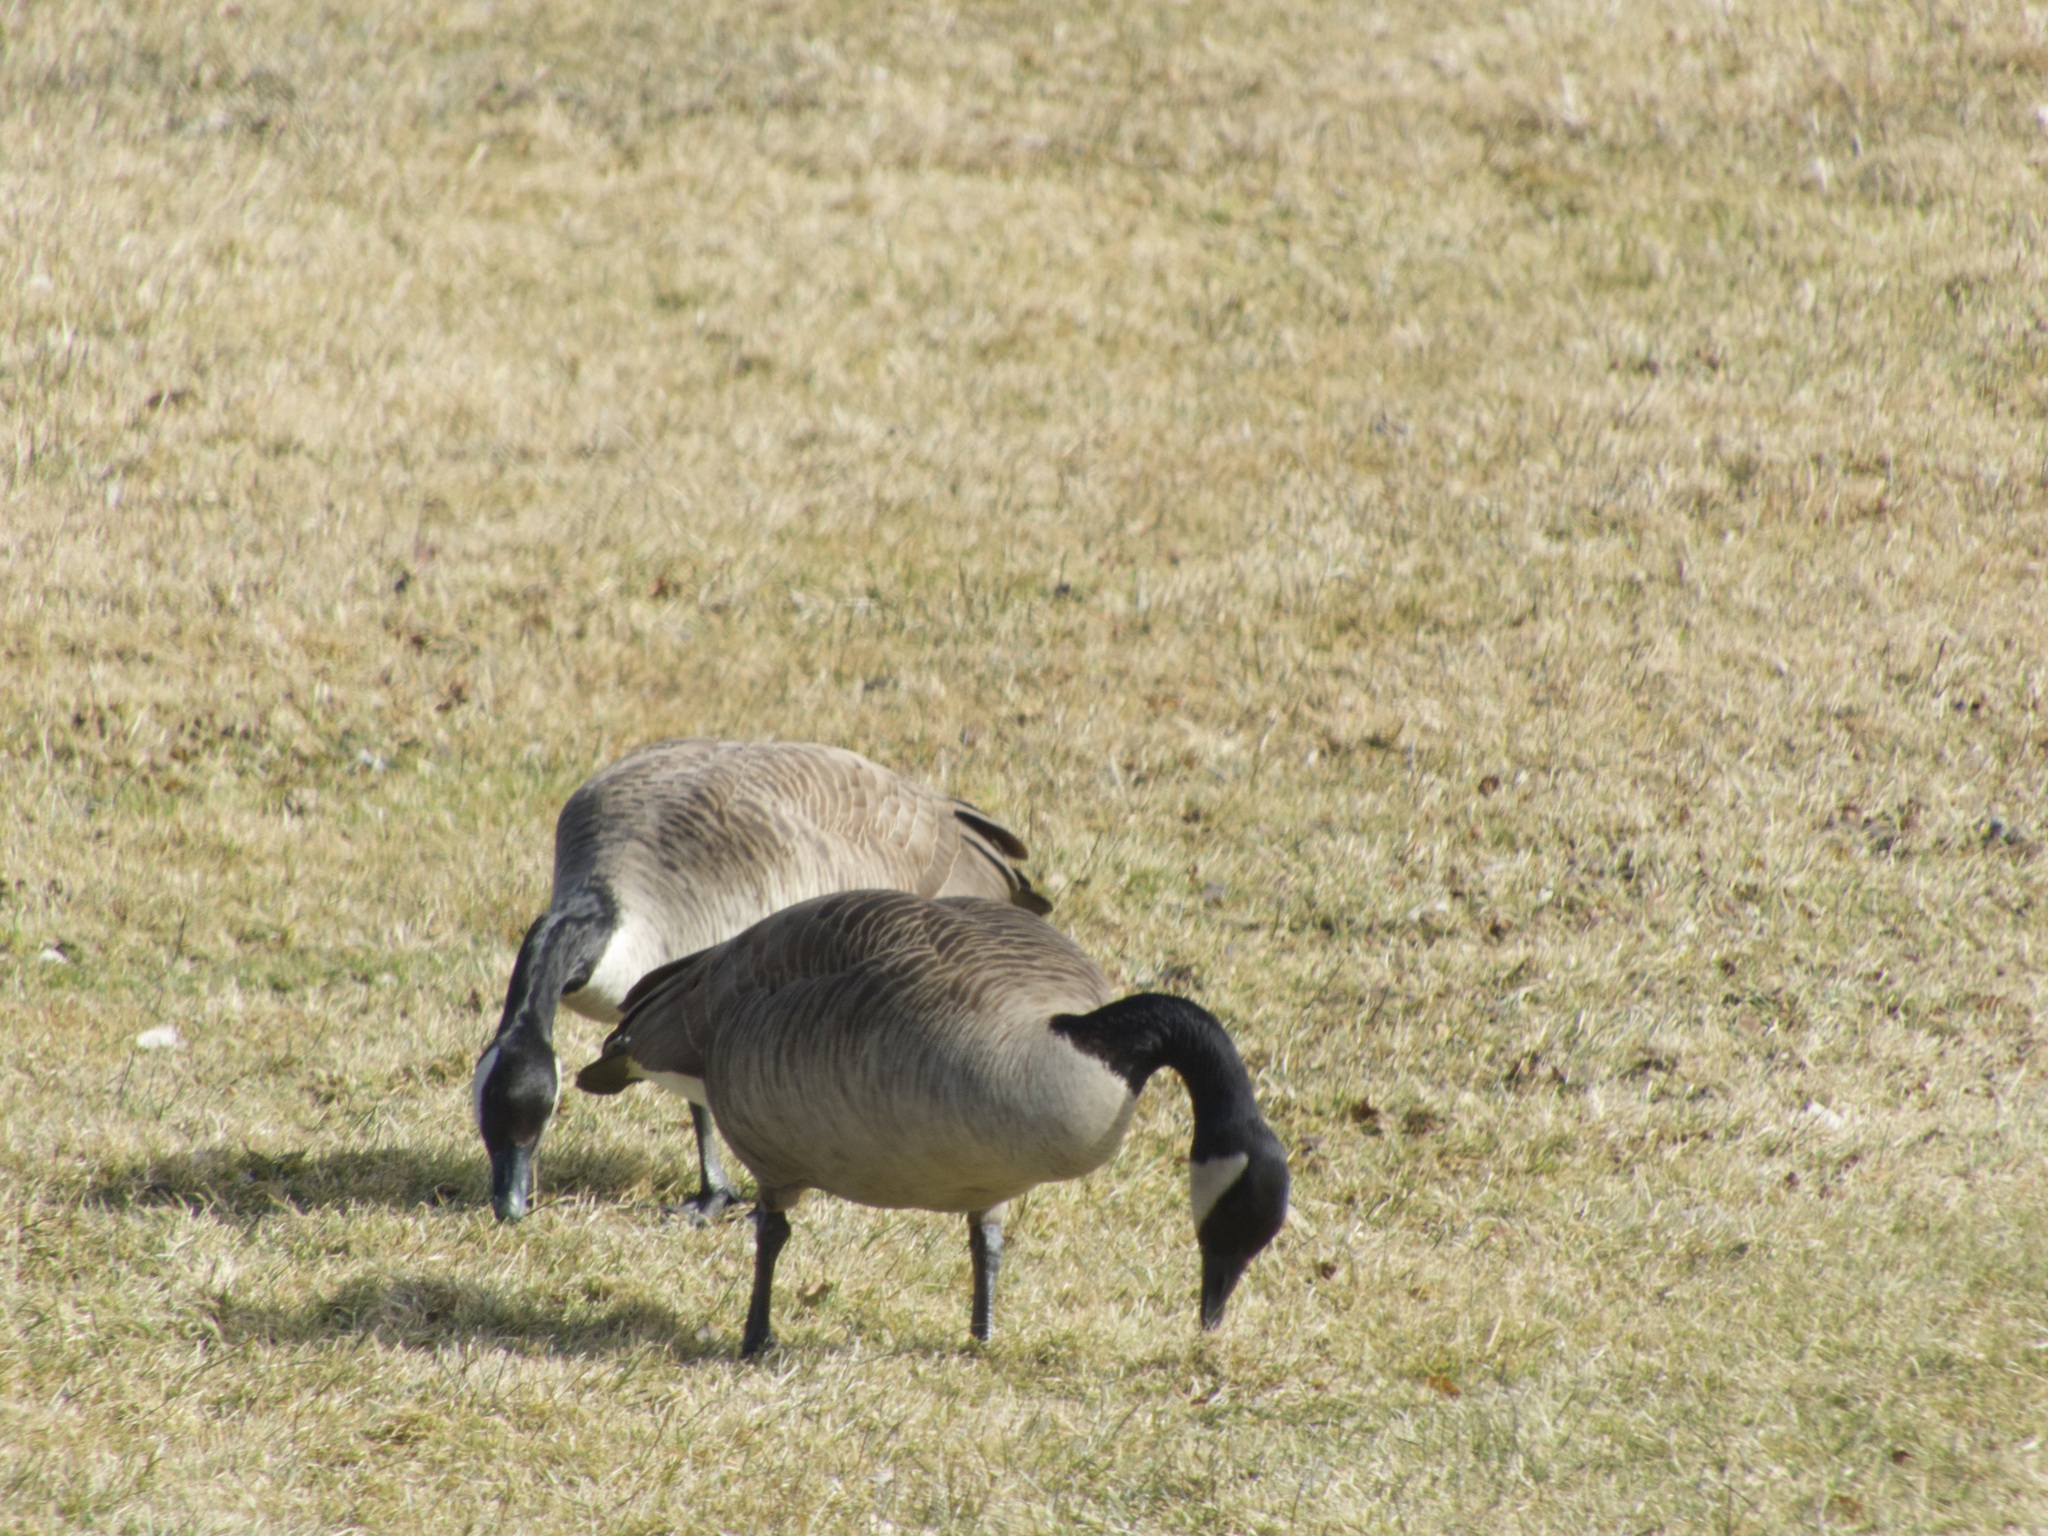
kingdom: Animalia
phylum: Chordata
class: Aves
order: Anseriformes
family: Anatidae
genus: Branta
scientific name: Branta canadensis
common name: Canada goose
